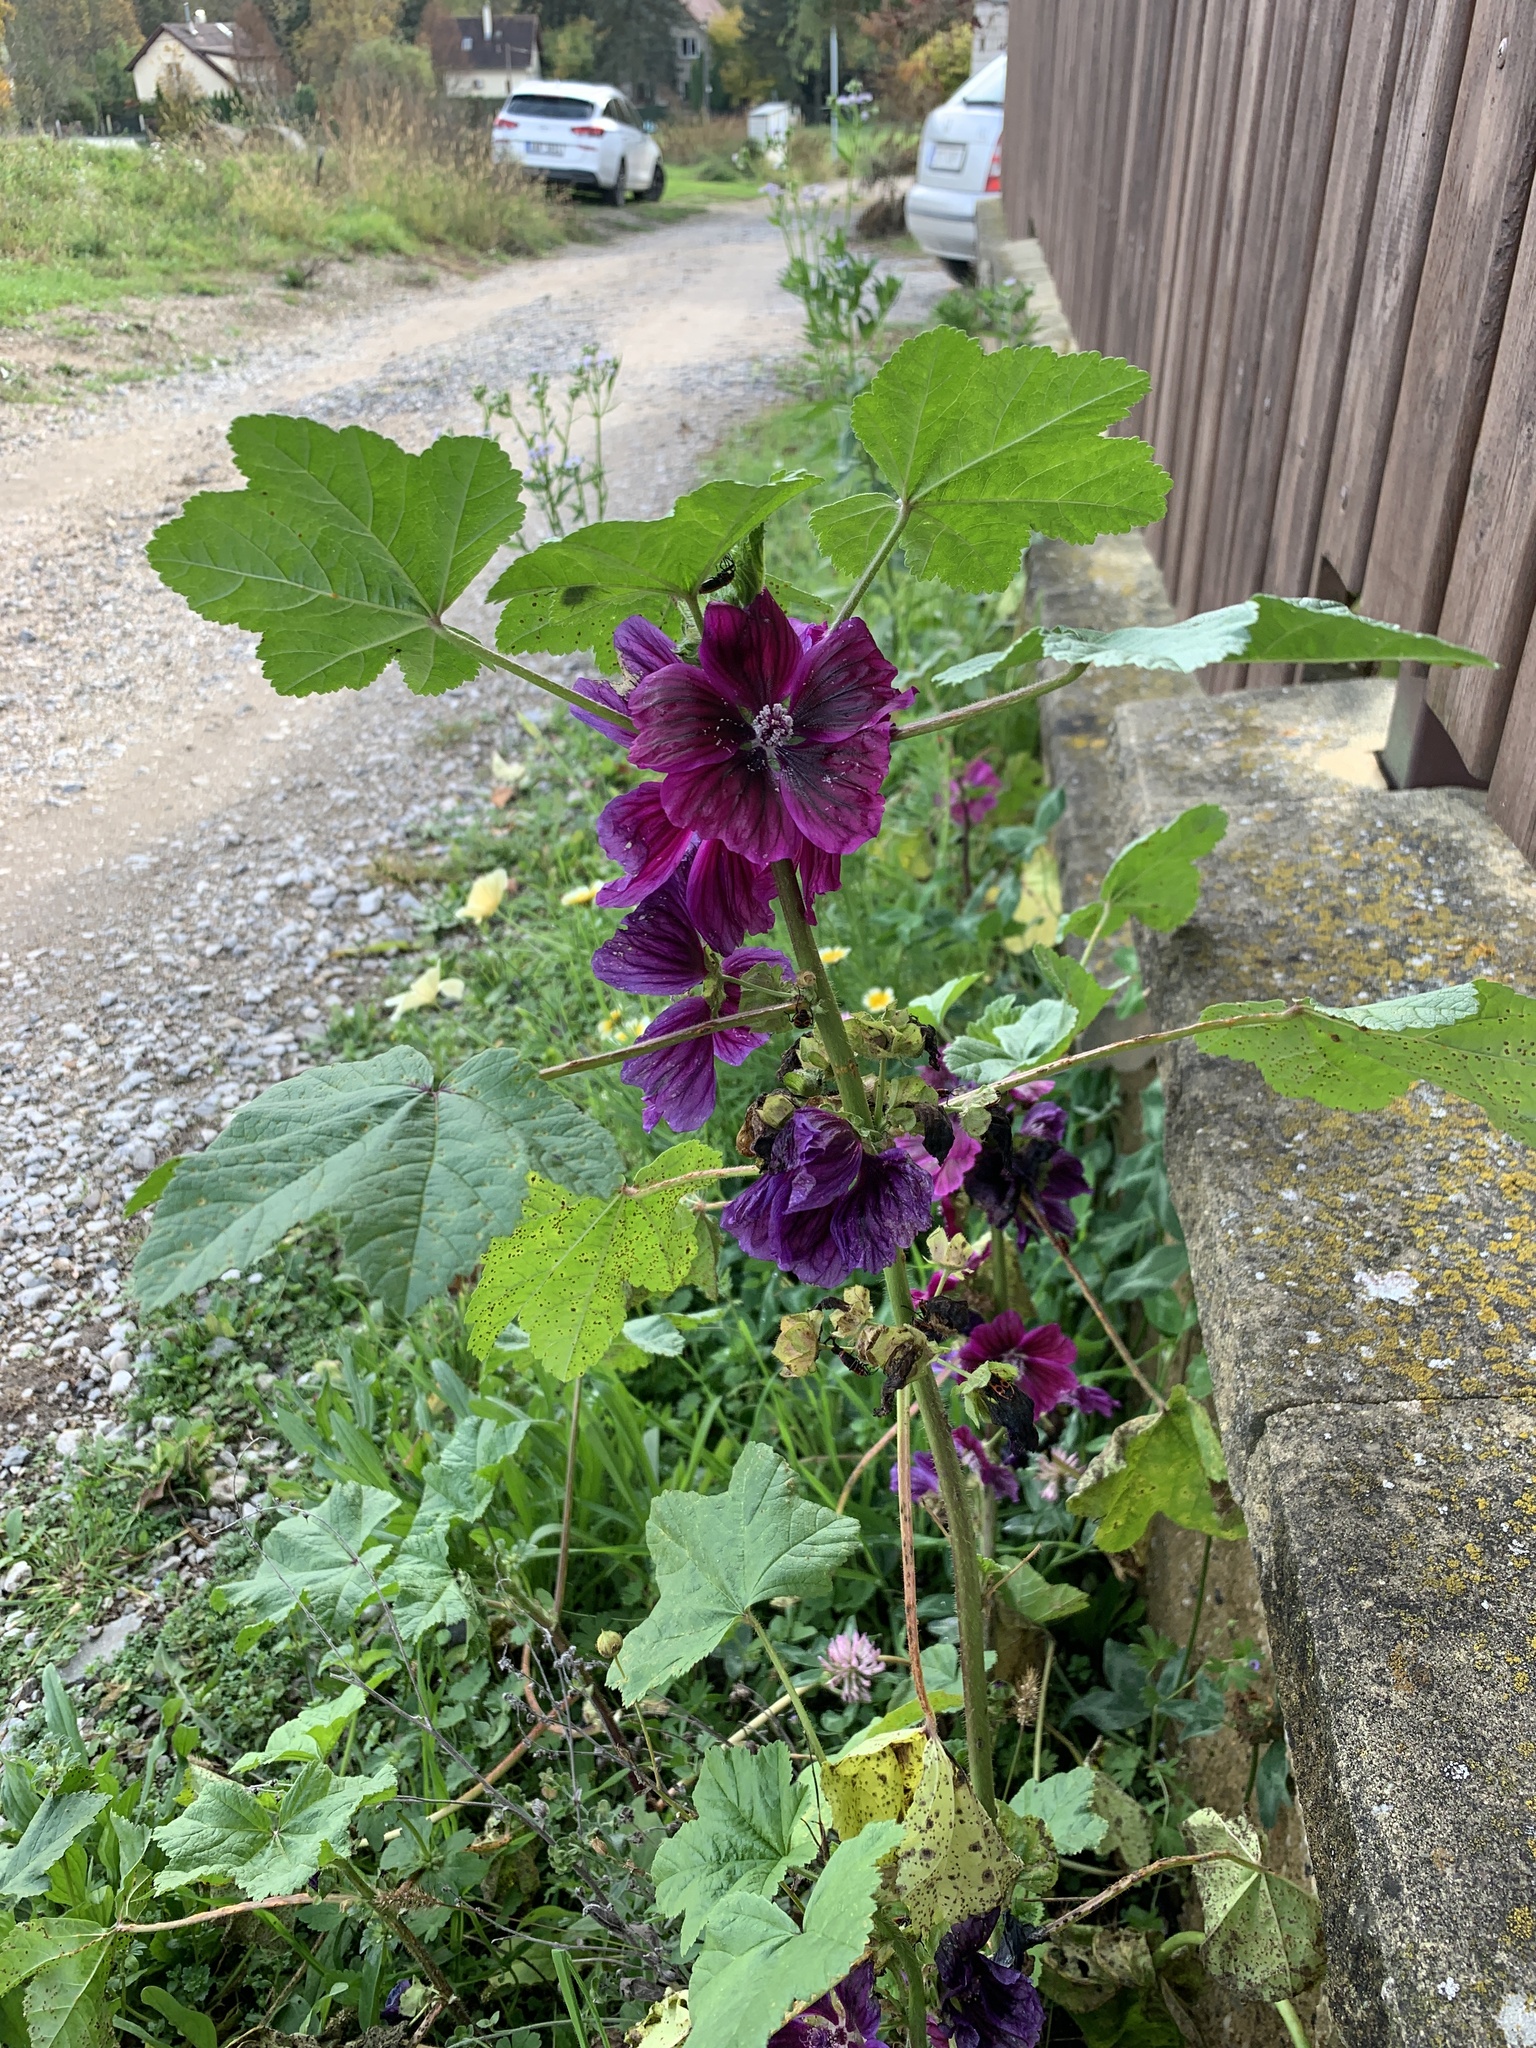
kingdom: Plantae
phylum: Tracheophyta
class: Magnoliopsida
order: Malvales
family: Malvaceae
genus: Malva
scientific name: Malva sylvestris
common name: Common mallow
